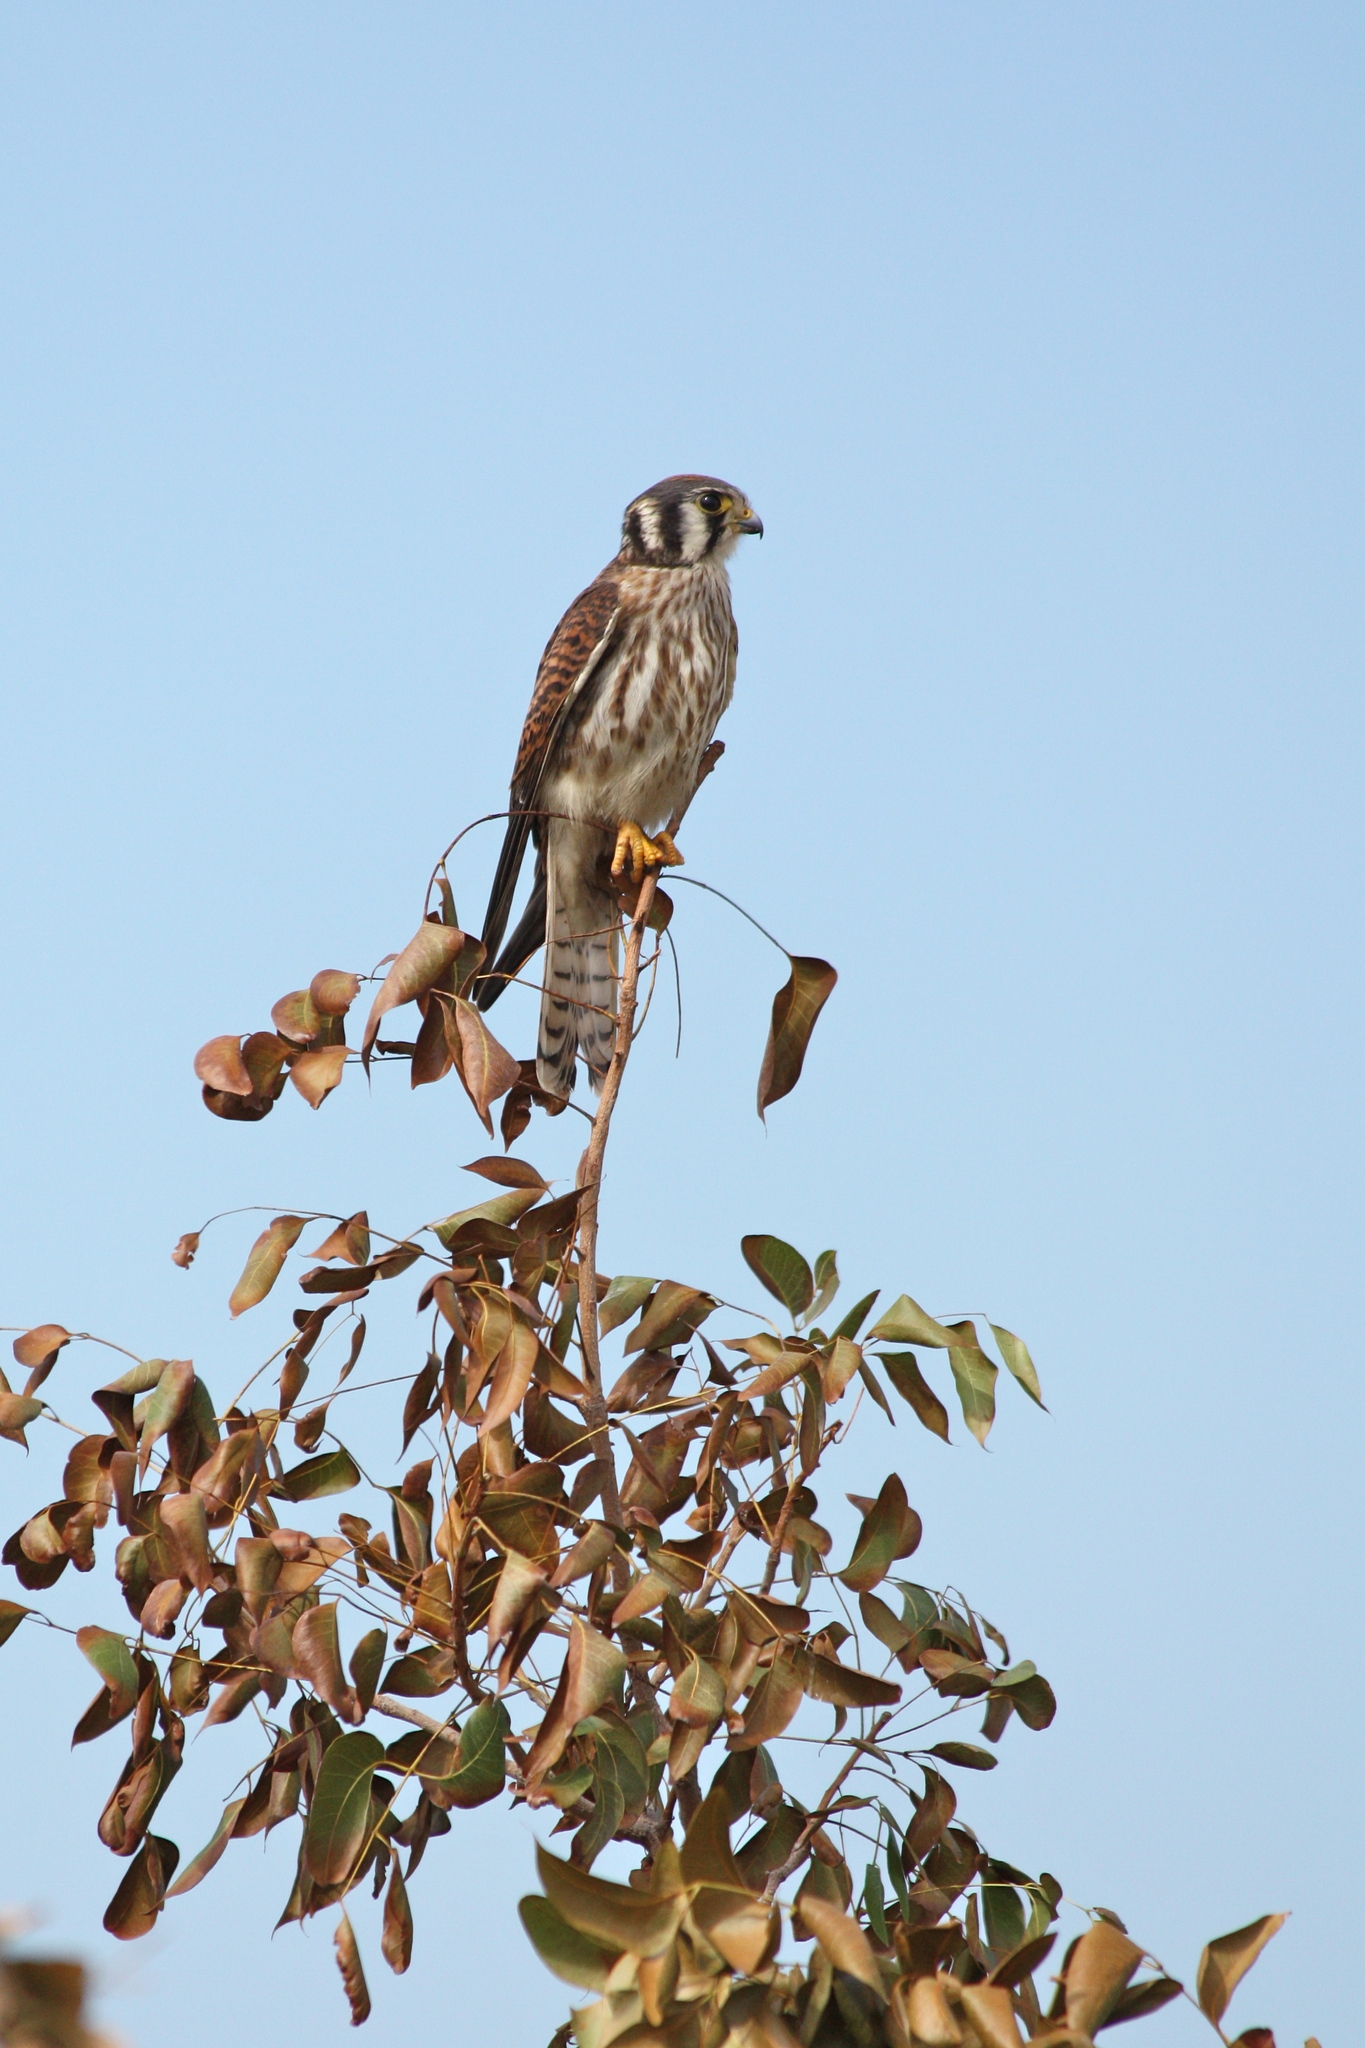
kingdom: Animalia
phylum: Chordata
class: Aves
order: Falconiformes
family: Falconidae
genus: Falco
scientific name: Falco sparverius
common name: American kestrel
